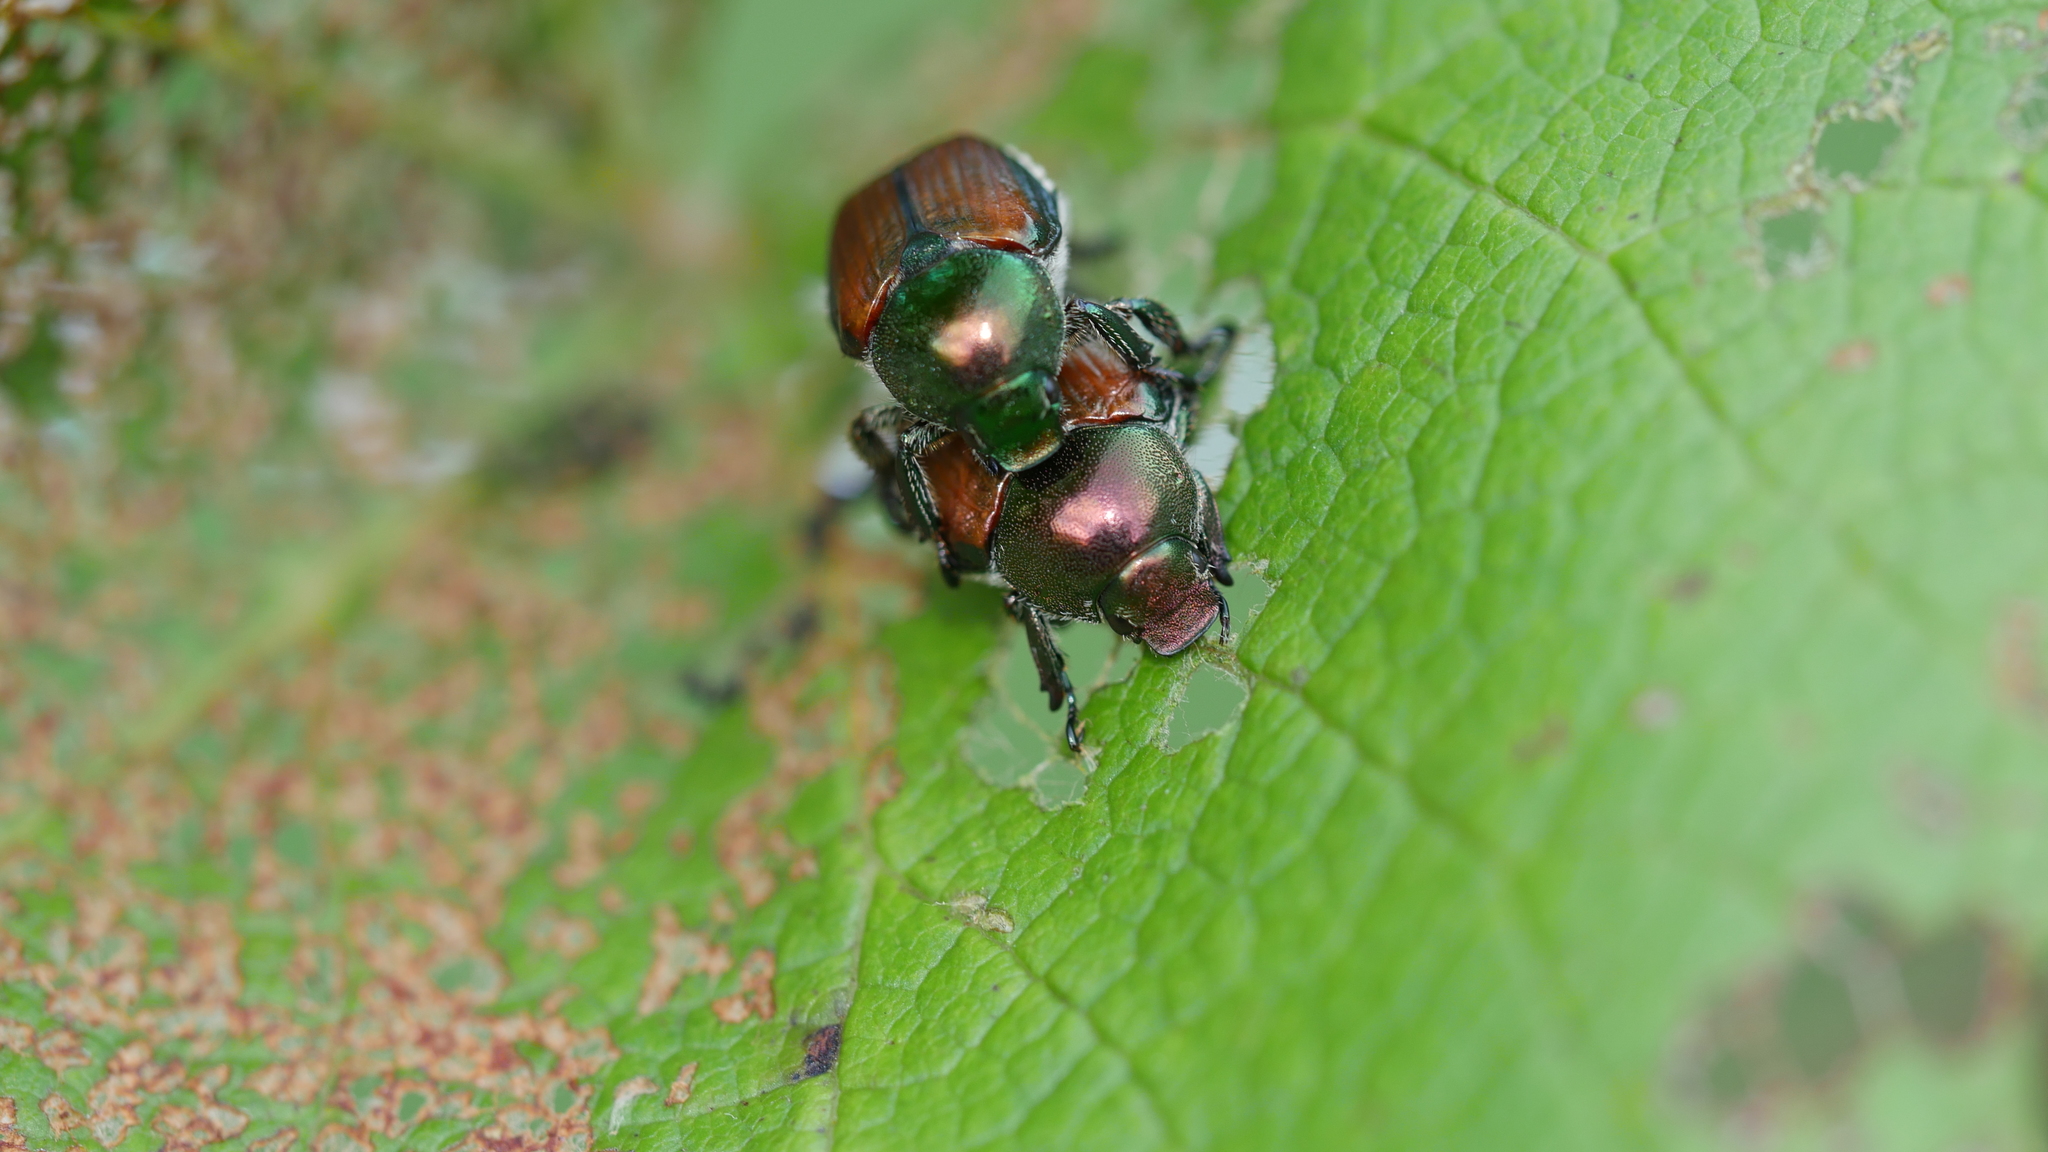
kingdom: Animalia
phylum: Arthropoda
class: Insecta
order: Coleoptera
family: Scarabaeidae
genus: Popillia
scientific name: Popillia japonica
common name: Japanese beetle
